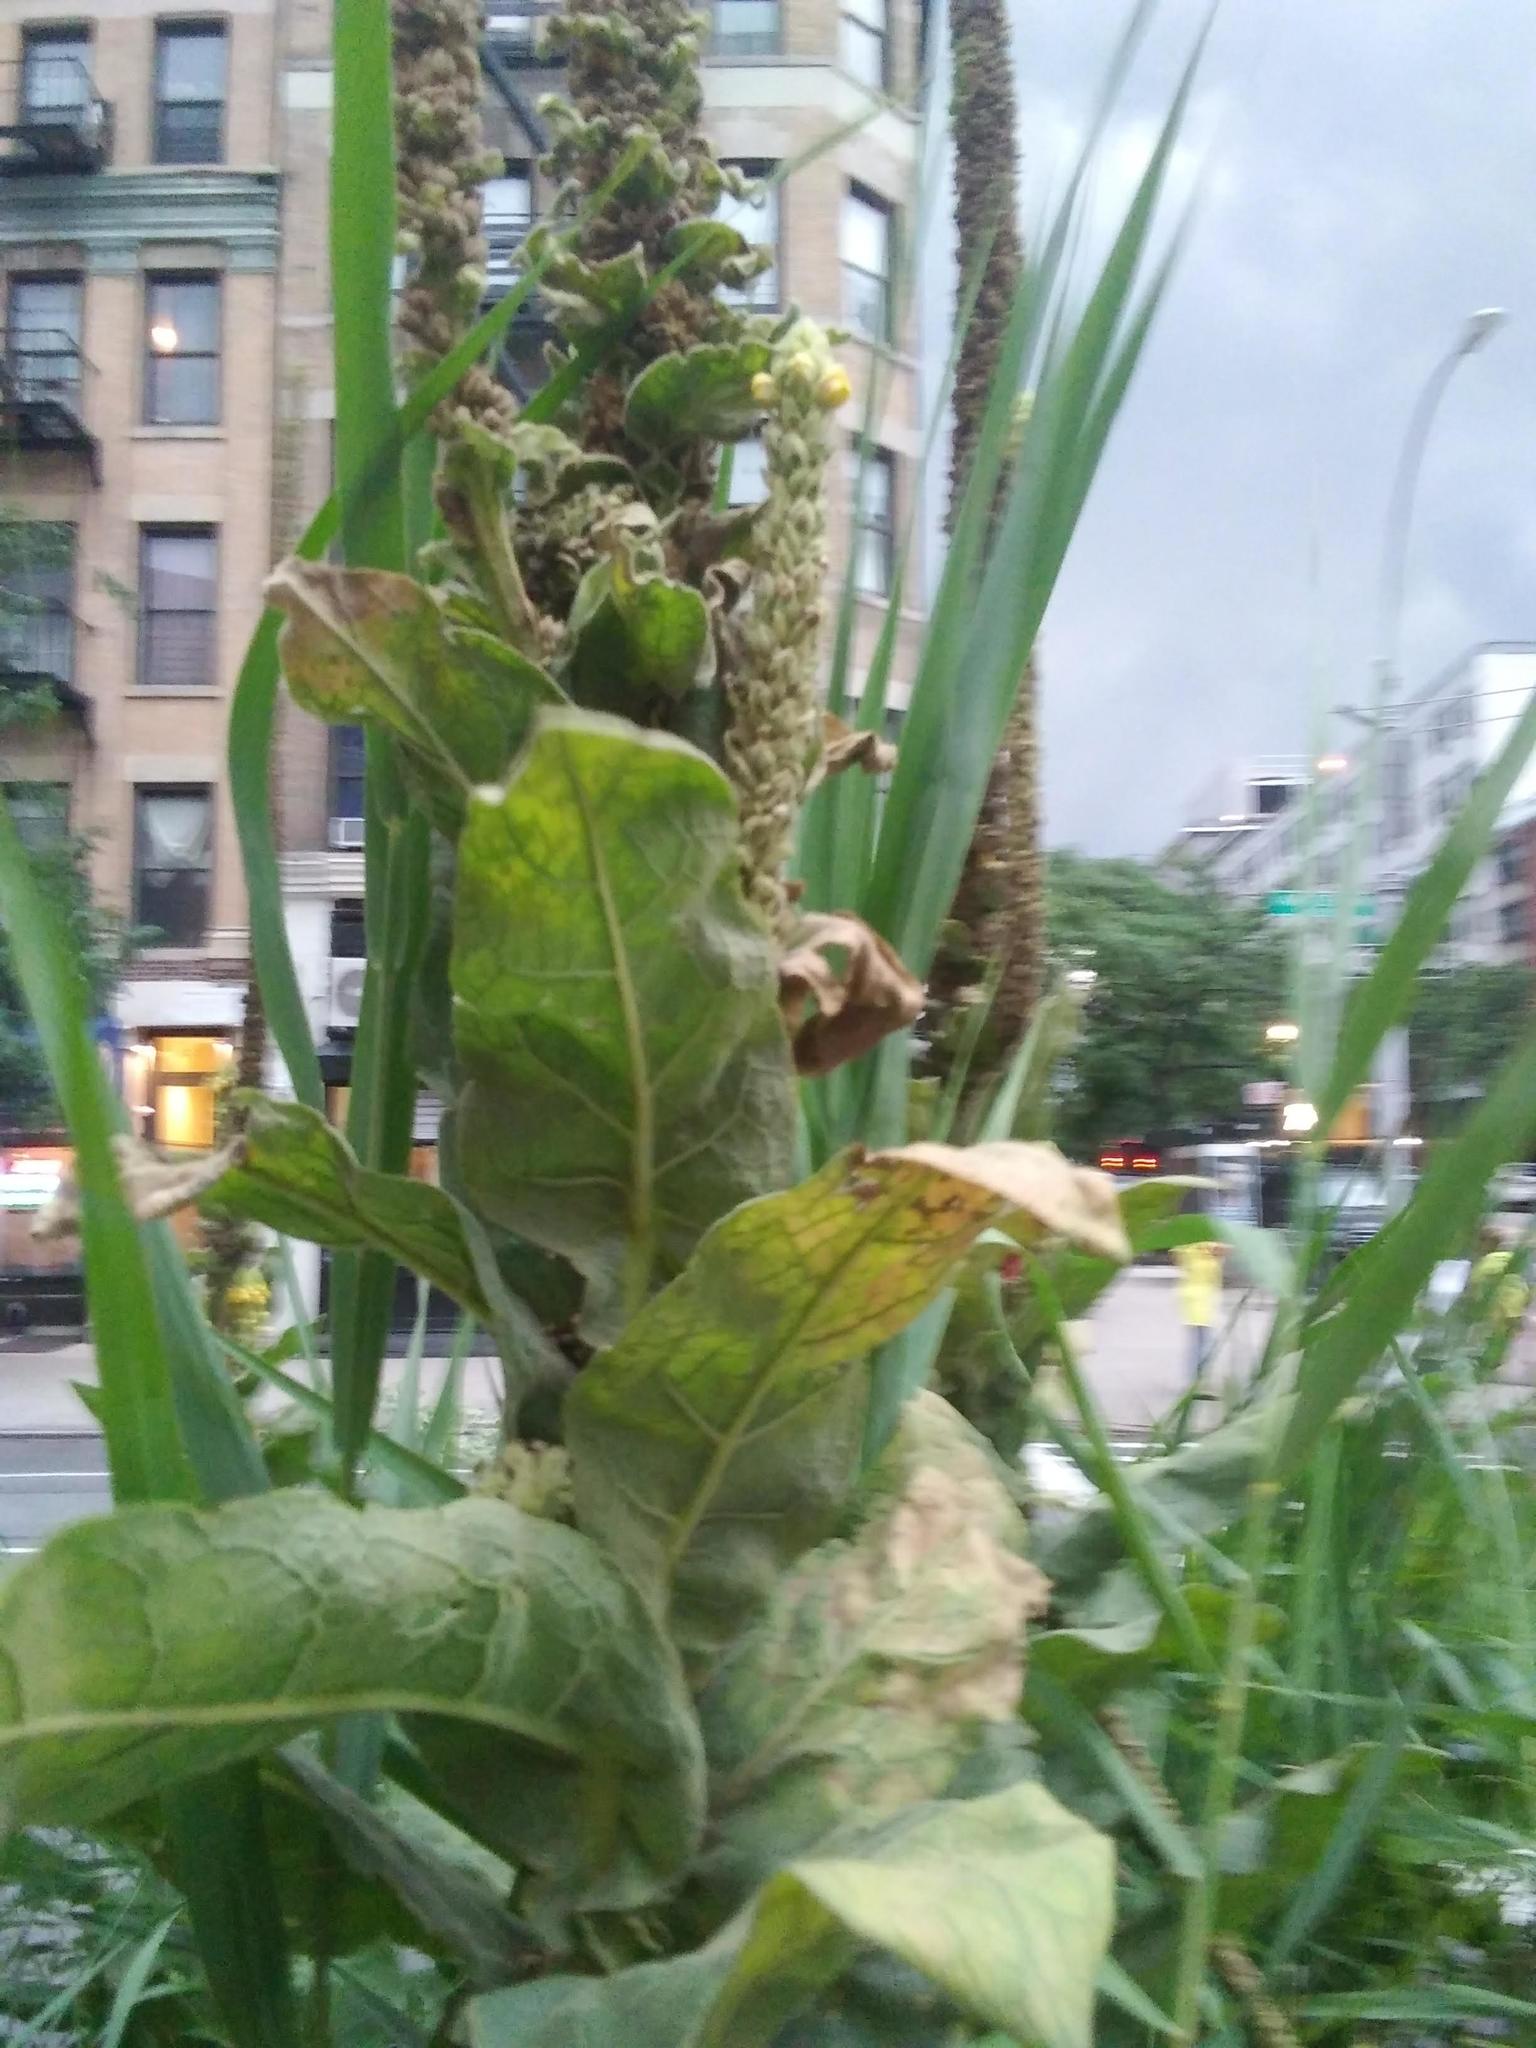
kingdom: Plantae
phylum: Tracheophyta
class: Magnoliopsida
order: Lamiales
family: Scrophulariaceae
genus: Verbascum
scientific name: Verbascum thapsus
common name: Common mullein
